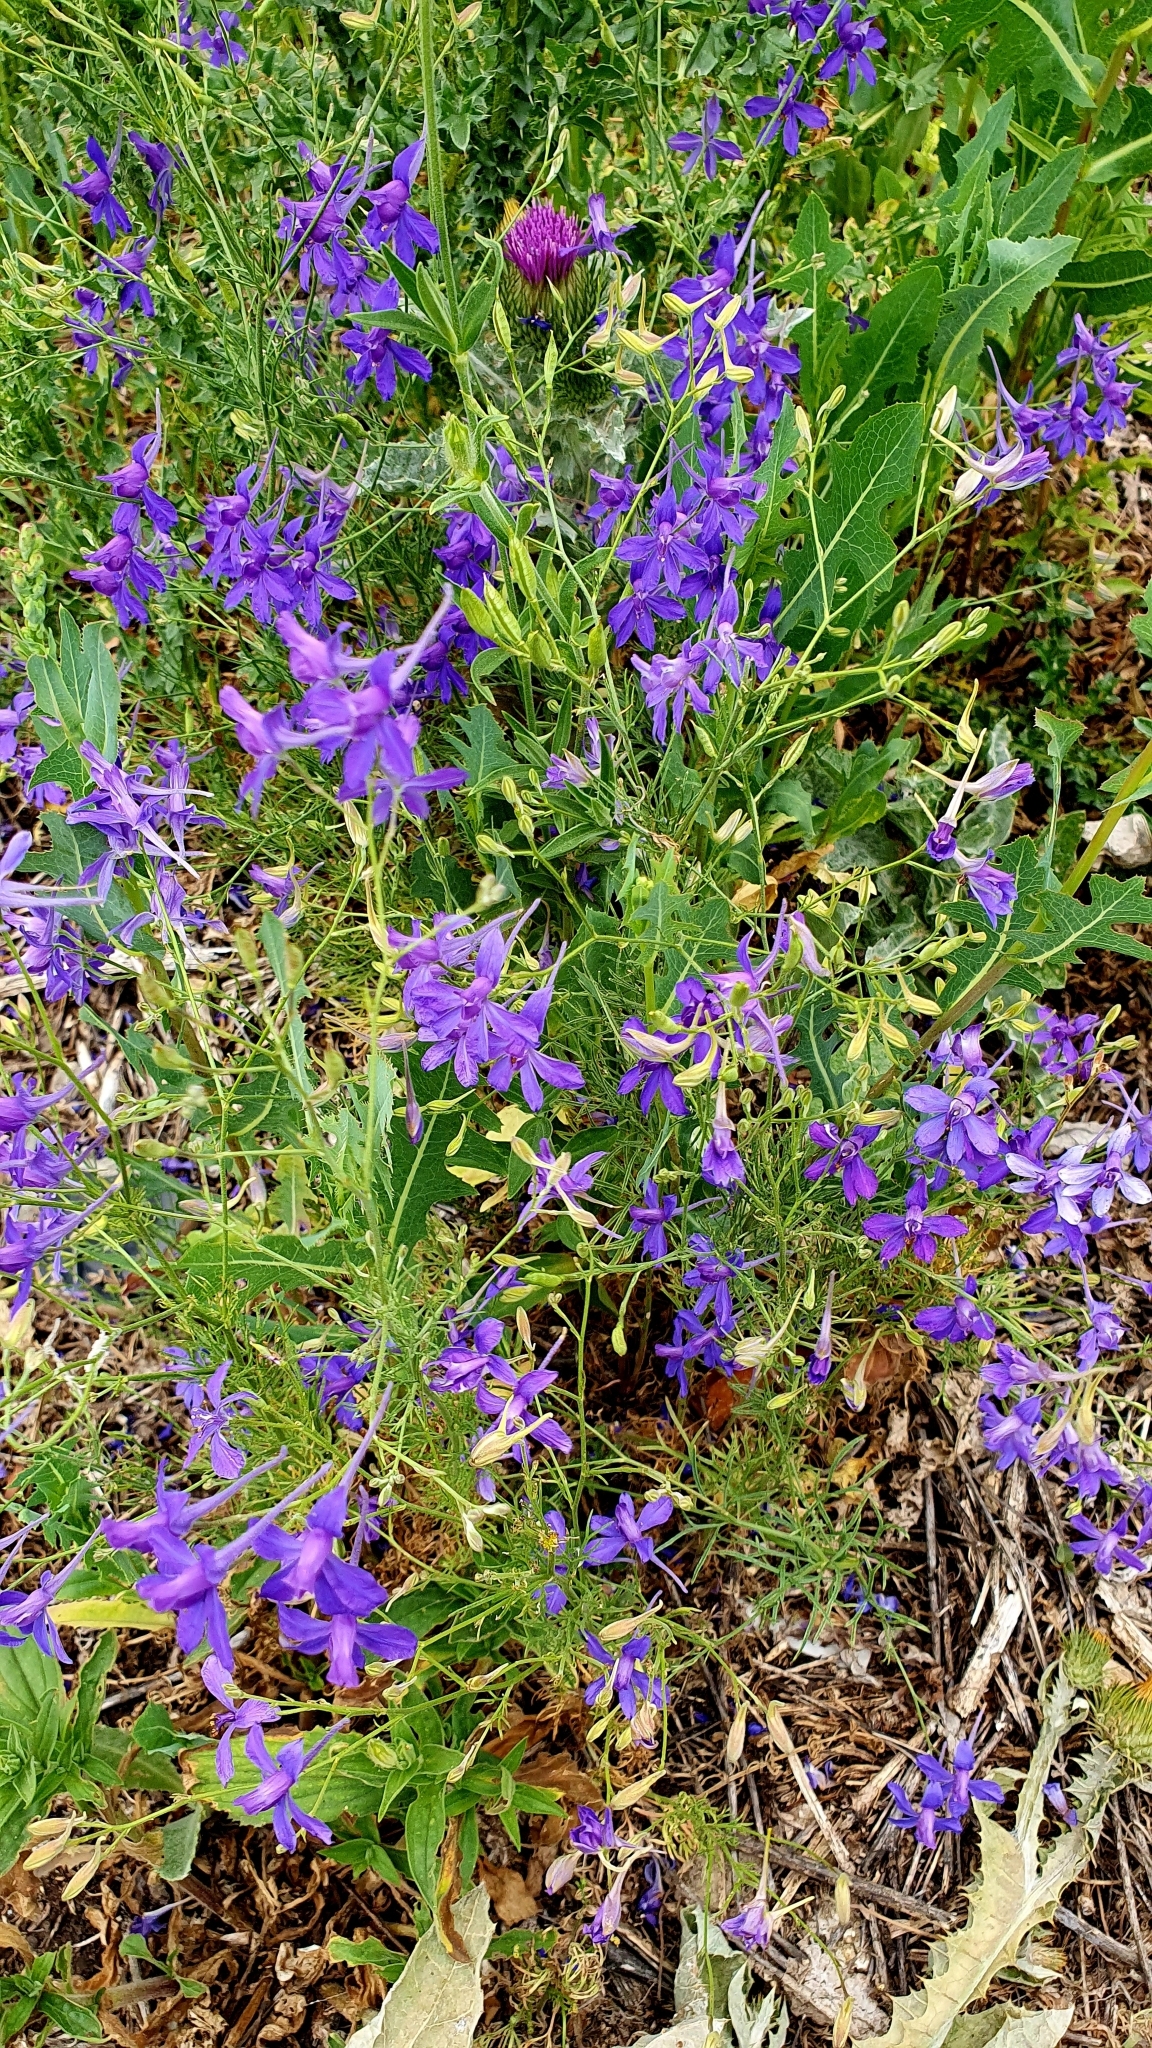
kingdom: Plantae
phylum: Tracheophyta
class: Magnoliopsida
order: Ranunculales
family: Ranunculaceae
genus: Delphinium
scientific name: Delphinium consolida
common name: Branching larkspur
